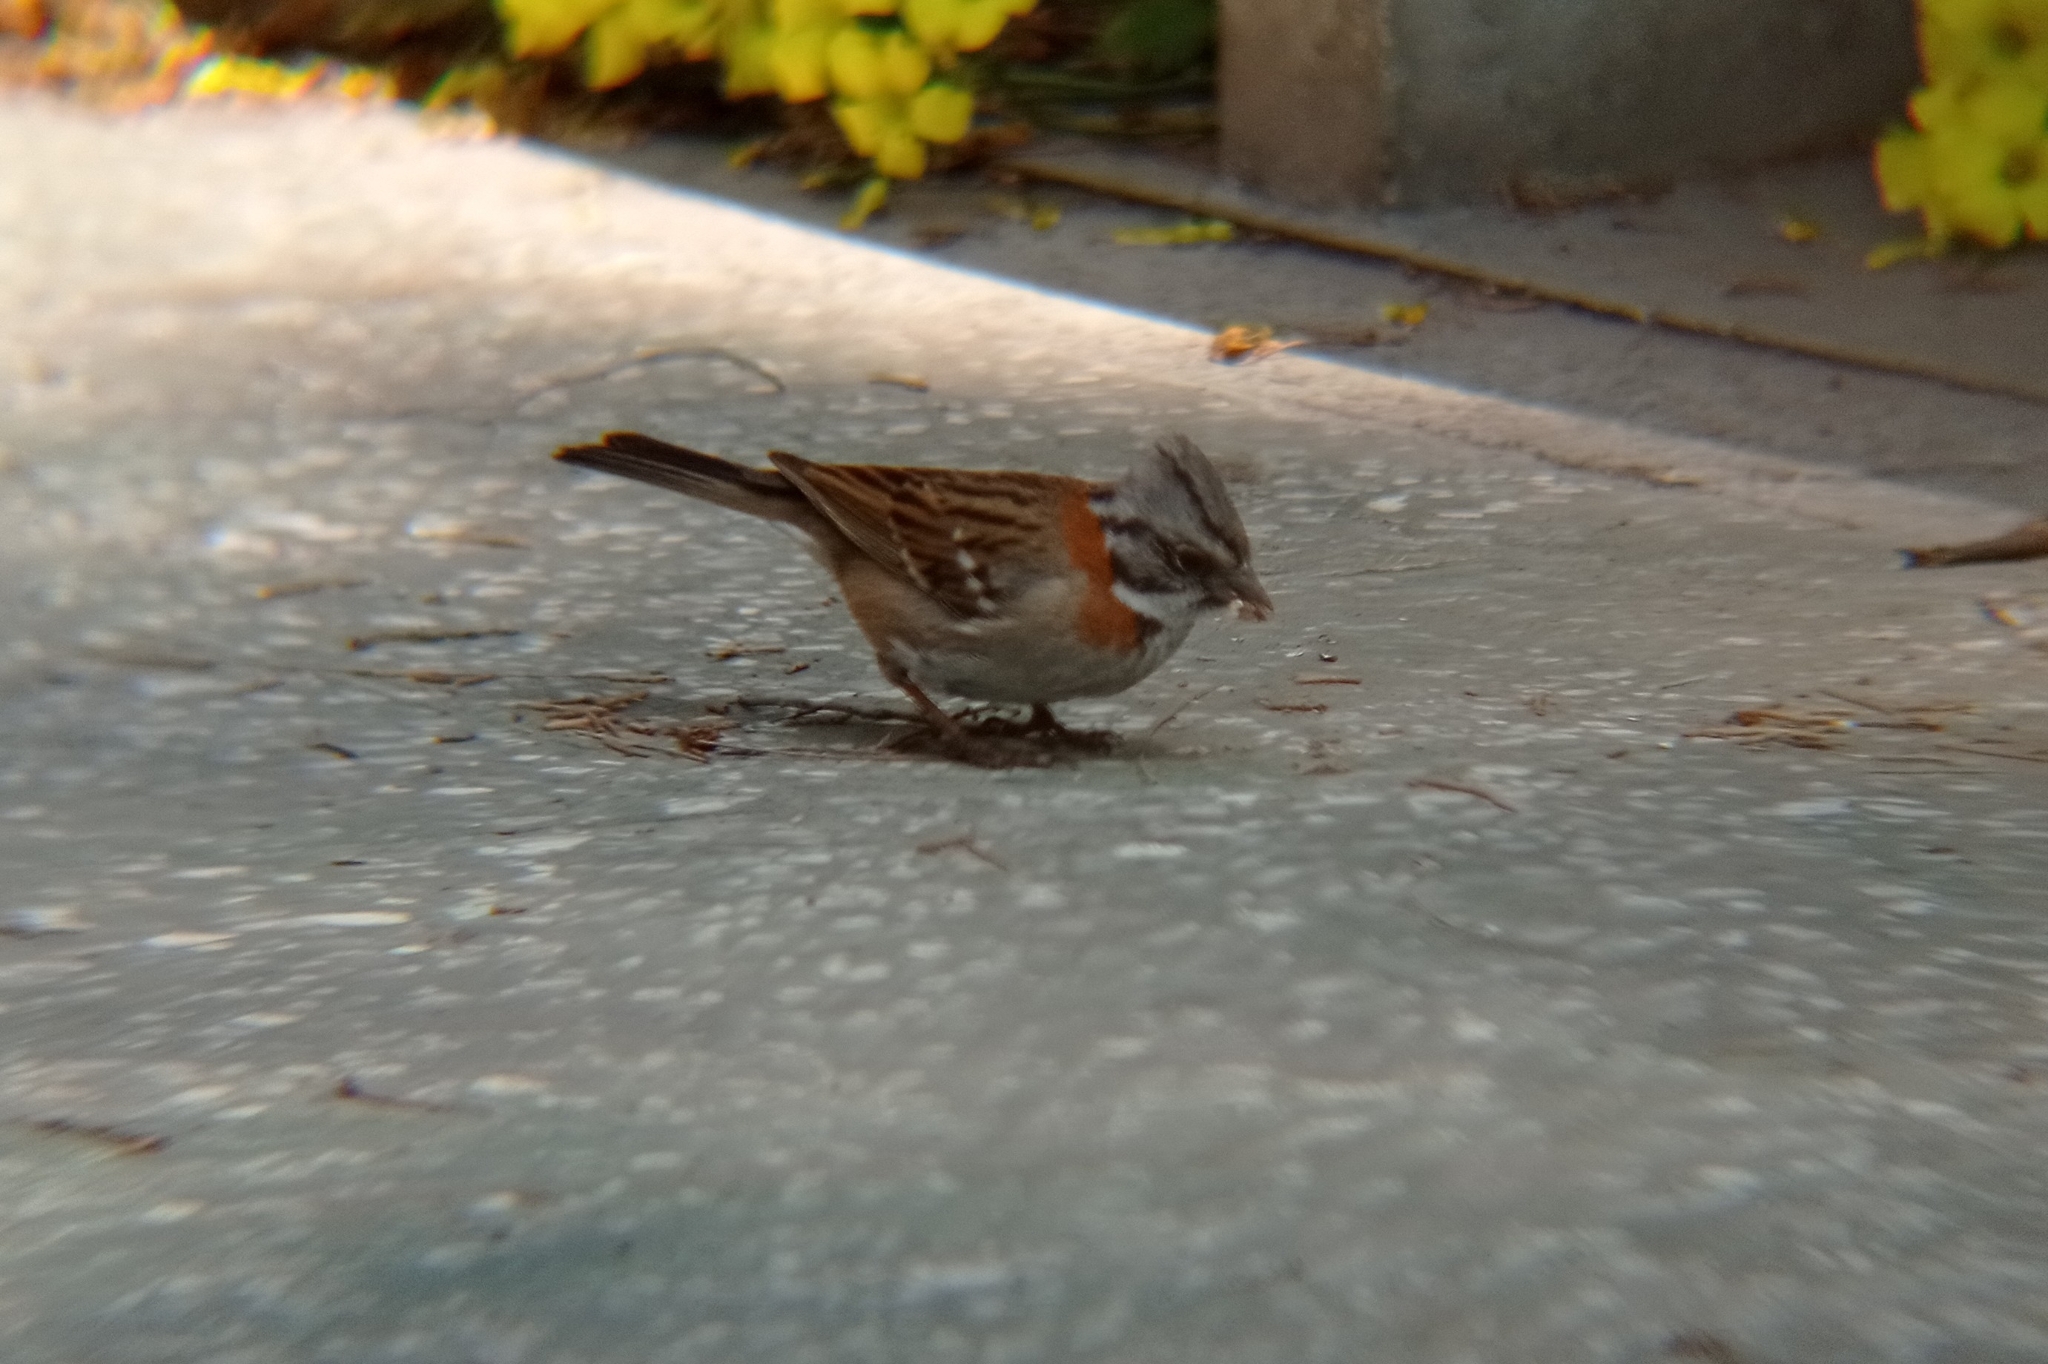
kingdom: Animalia
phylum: Chordata
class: Aves
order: Passeriformes
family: Passerellidae
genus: Zonotrichia
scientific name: Zonotrichia capensis
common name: Rufous-collared sparrow
